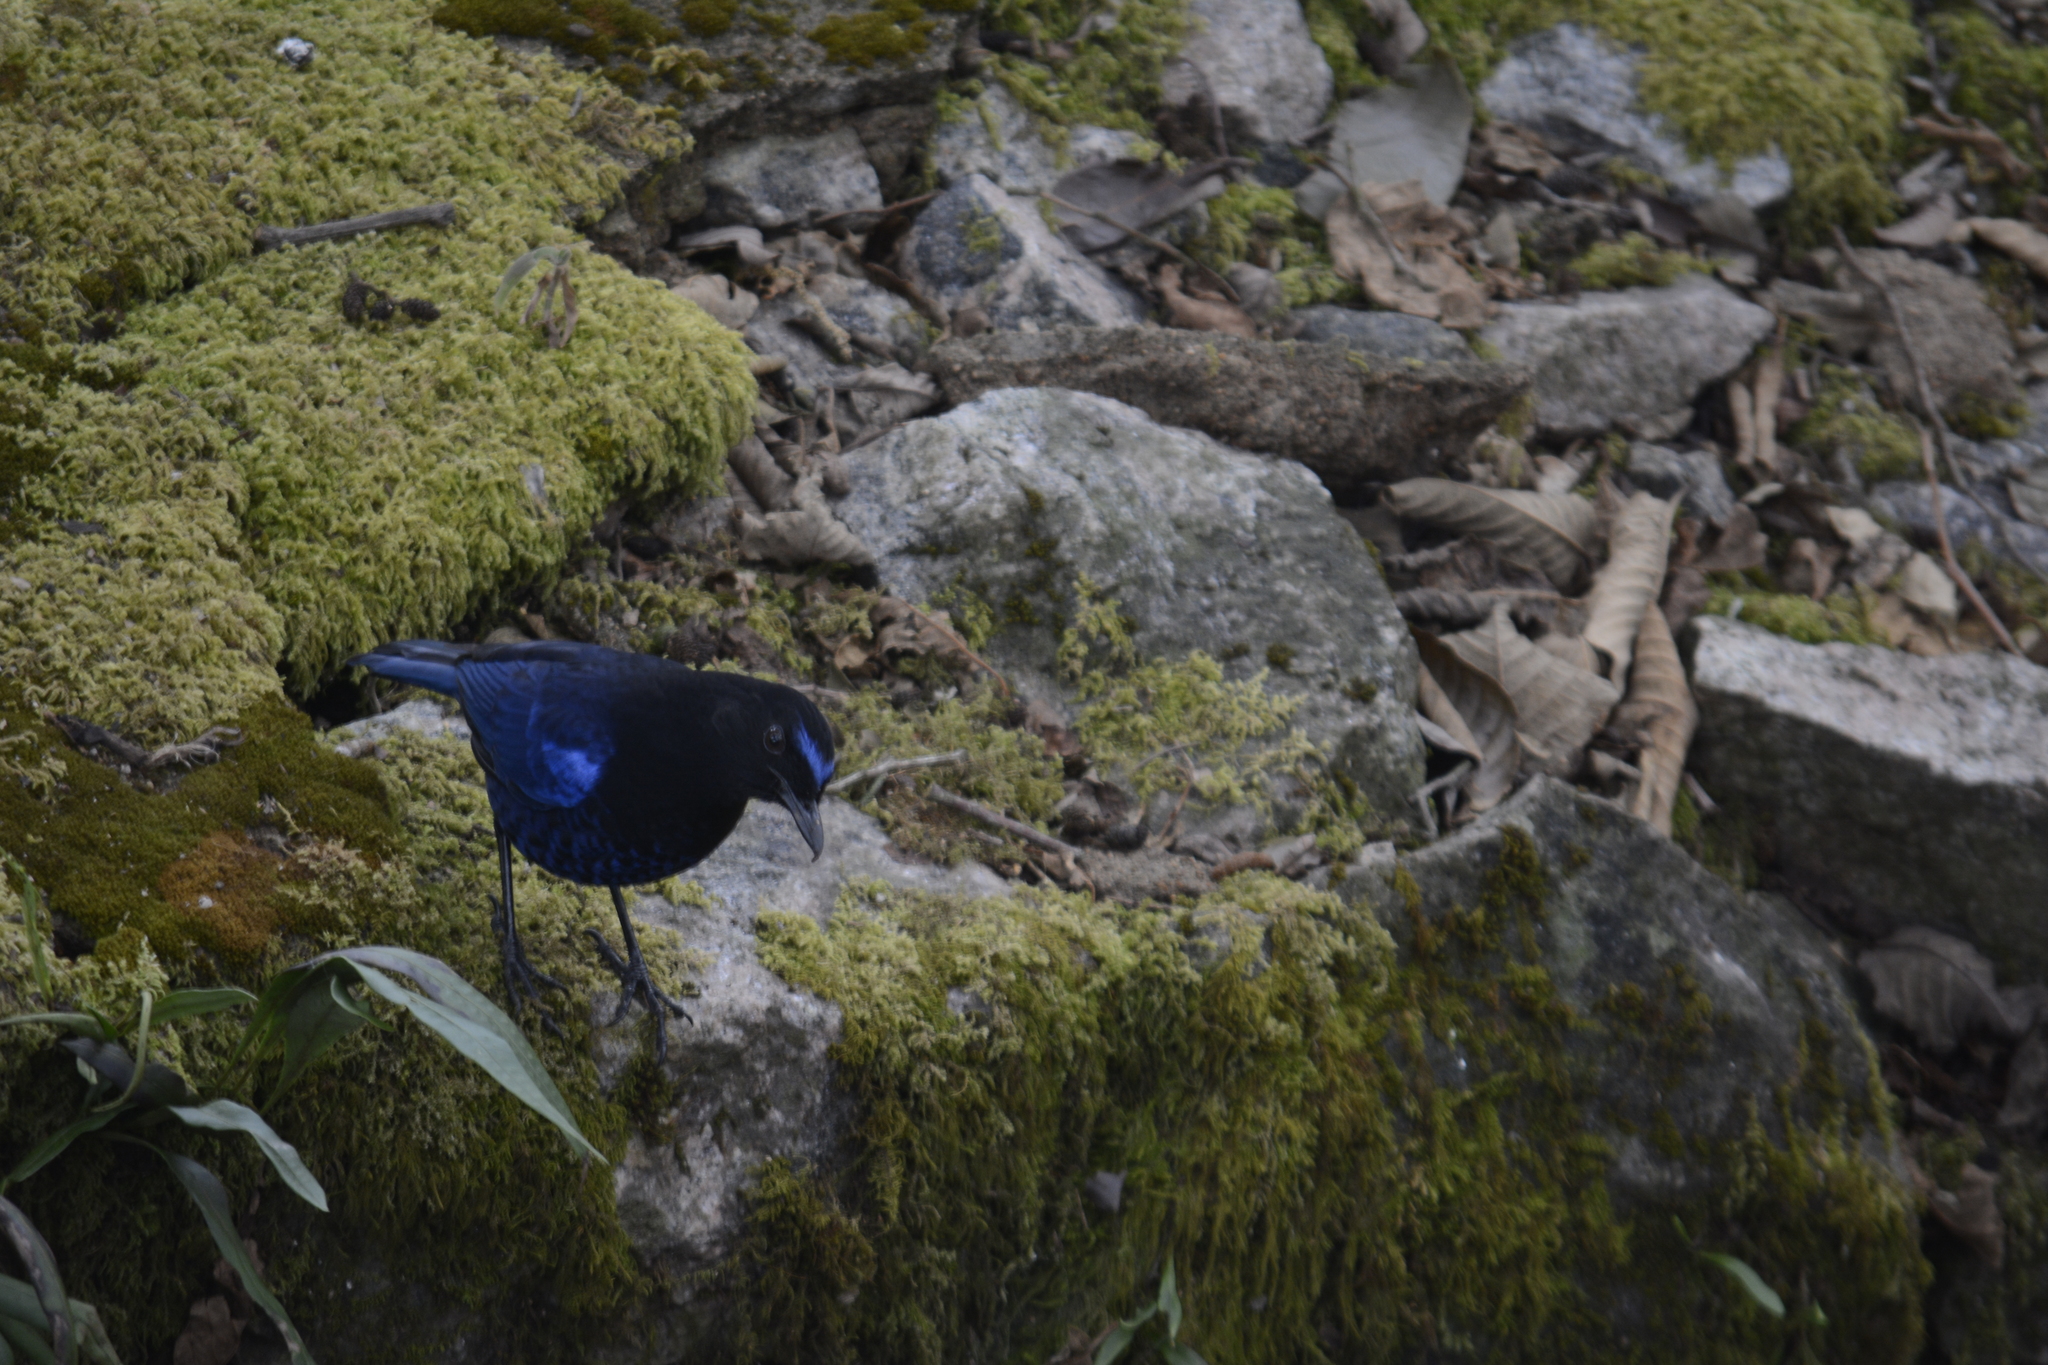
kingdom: Animalia
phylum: Chordata
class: Aves
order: Passeriformes
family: Muscicapidae
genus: Myophonus
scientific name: Myophonus horsfieldii
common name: Malabar whistling-thrush
